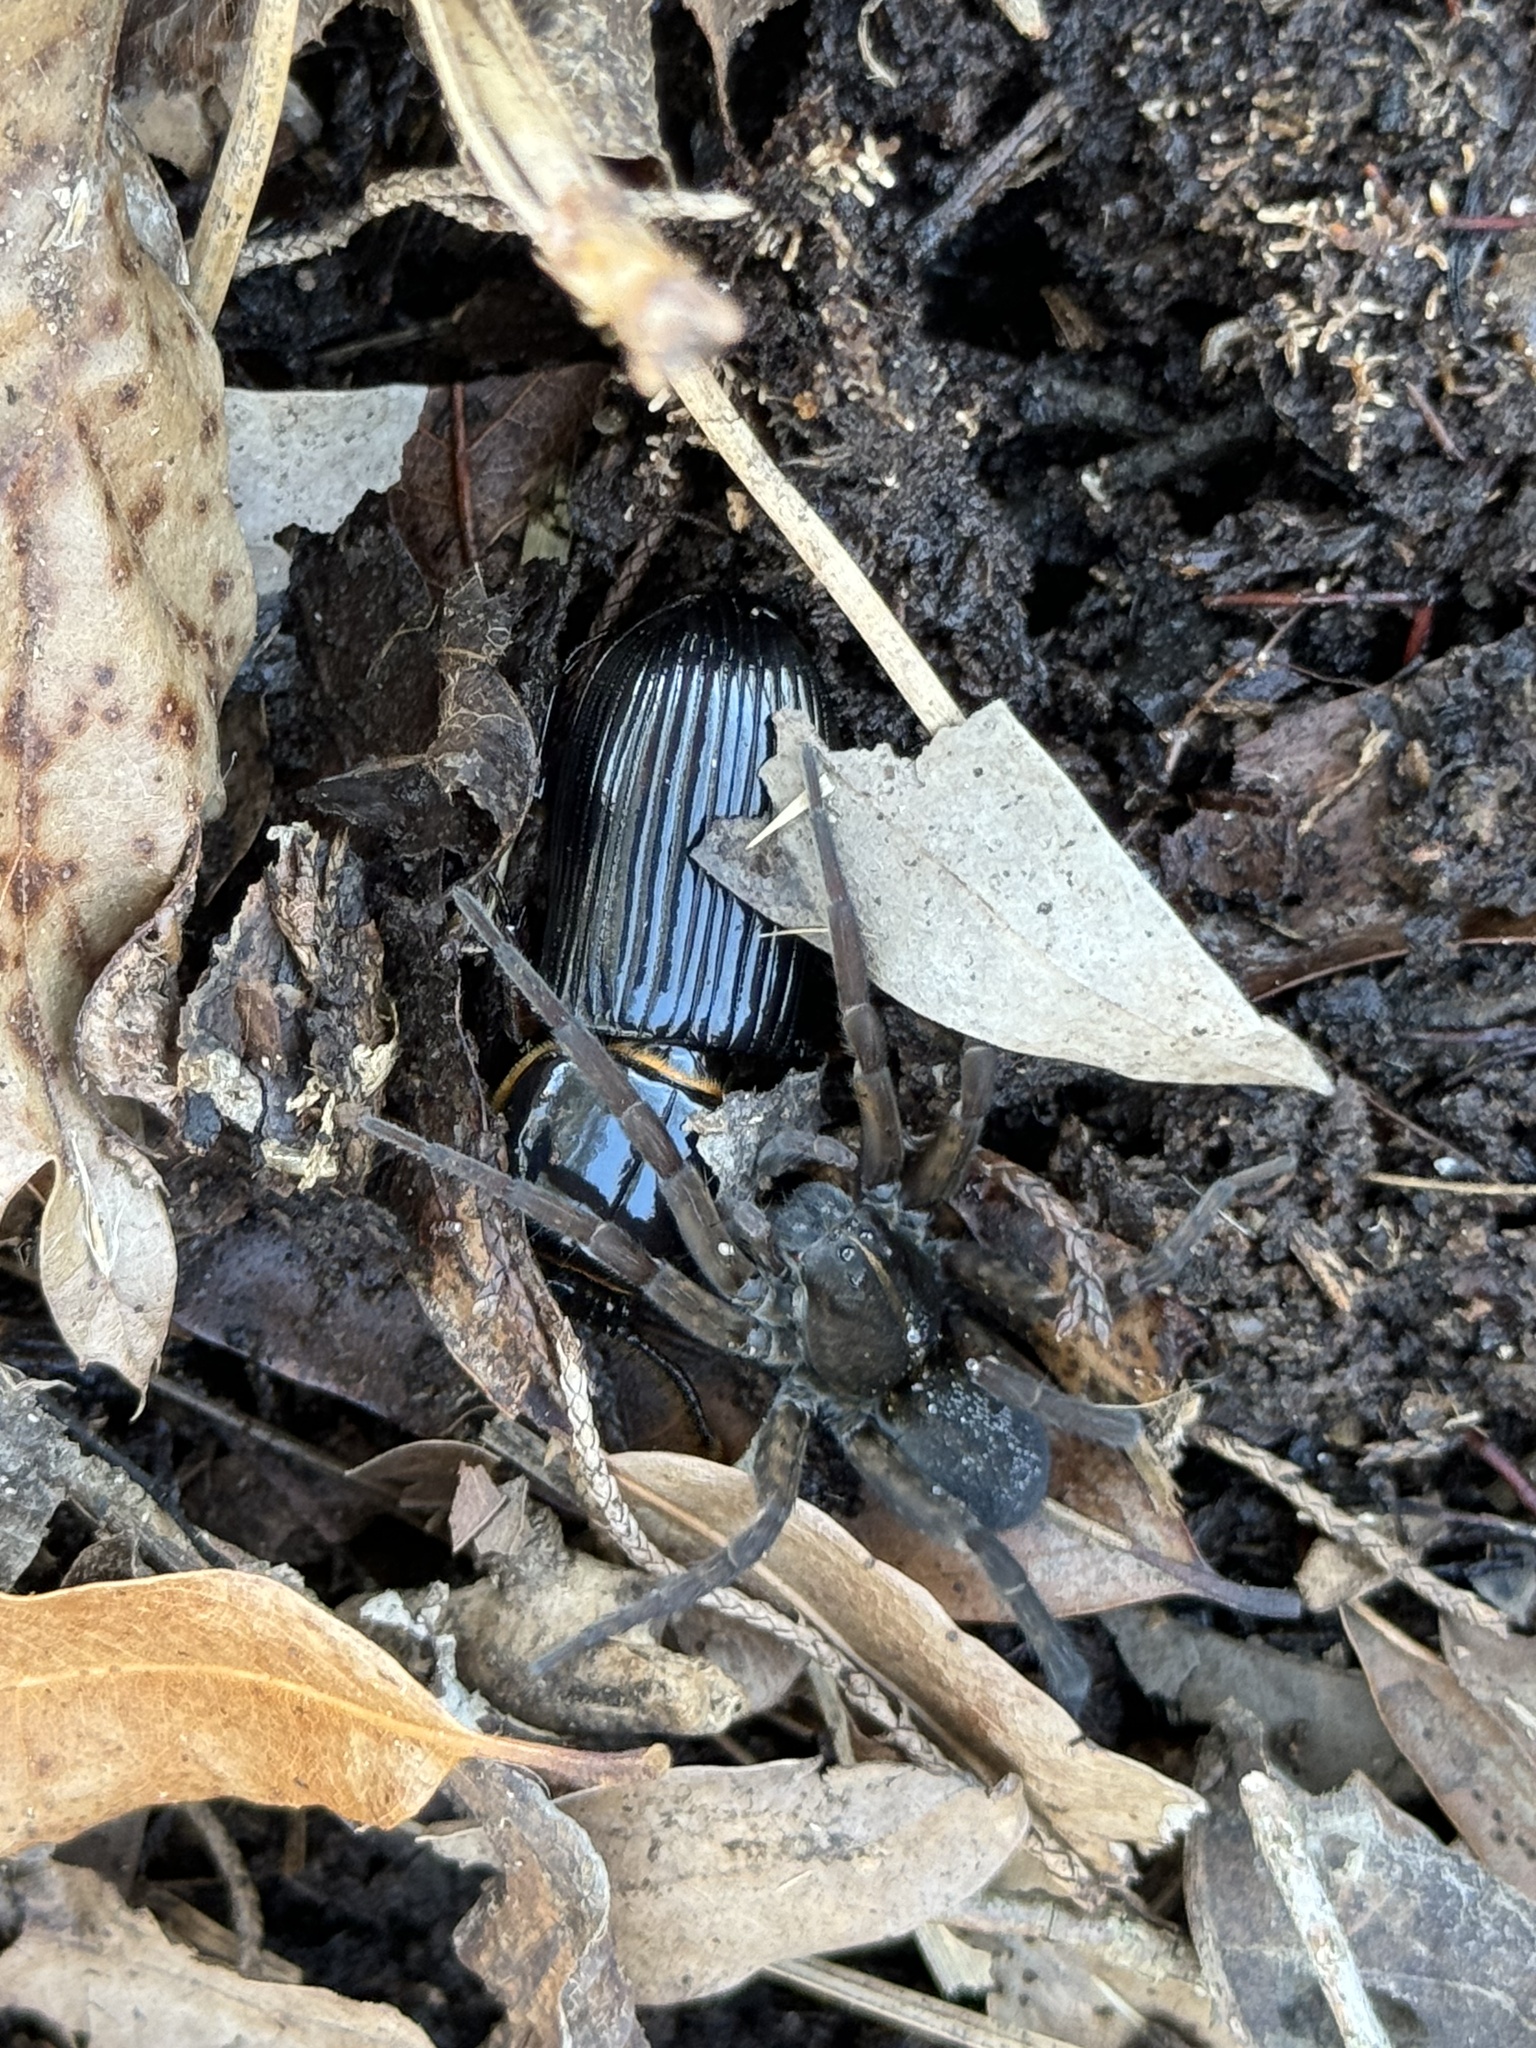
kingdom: Animalia
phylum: Arthropoda
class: Insecta
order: Coleoptera
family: Passalidae
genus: Odontotaenius
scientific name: Odontotaenius disjunctus
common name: Patent leather beetle
